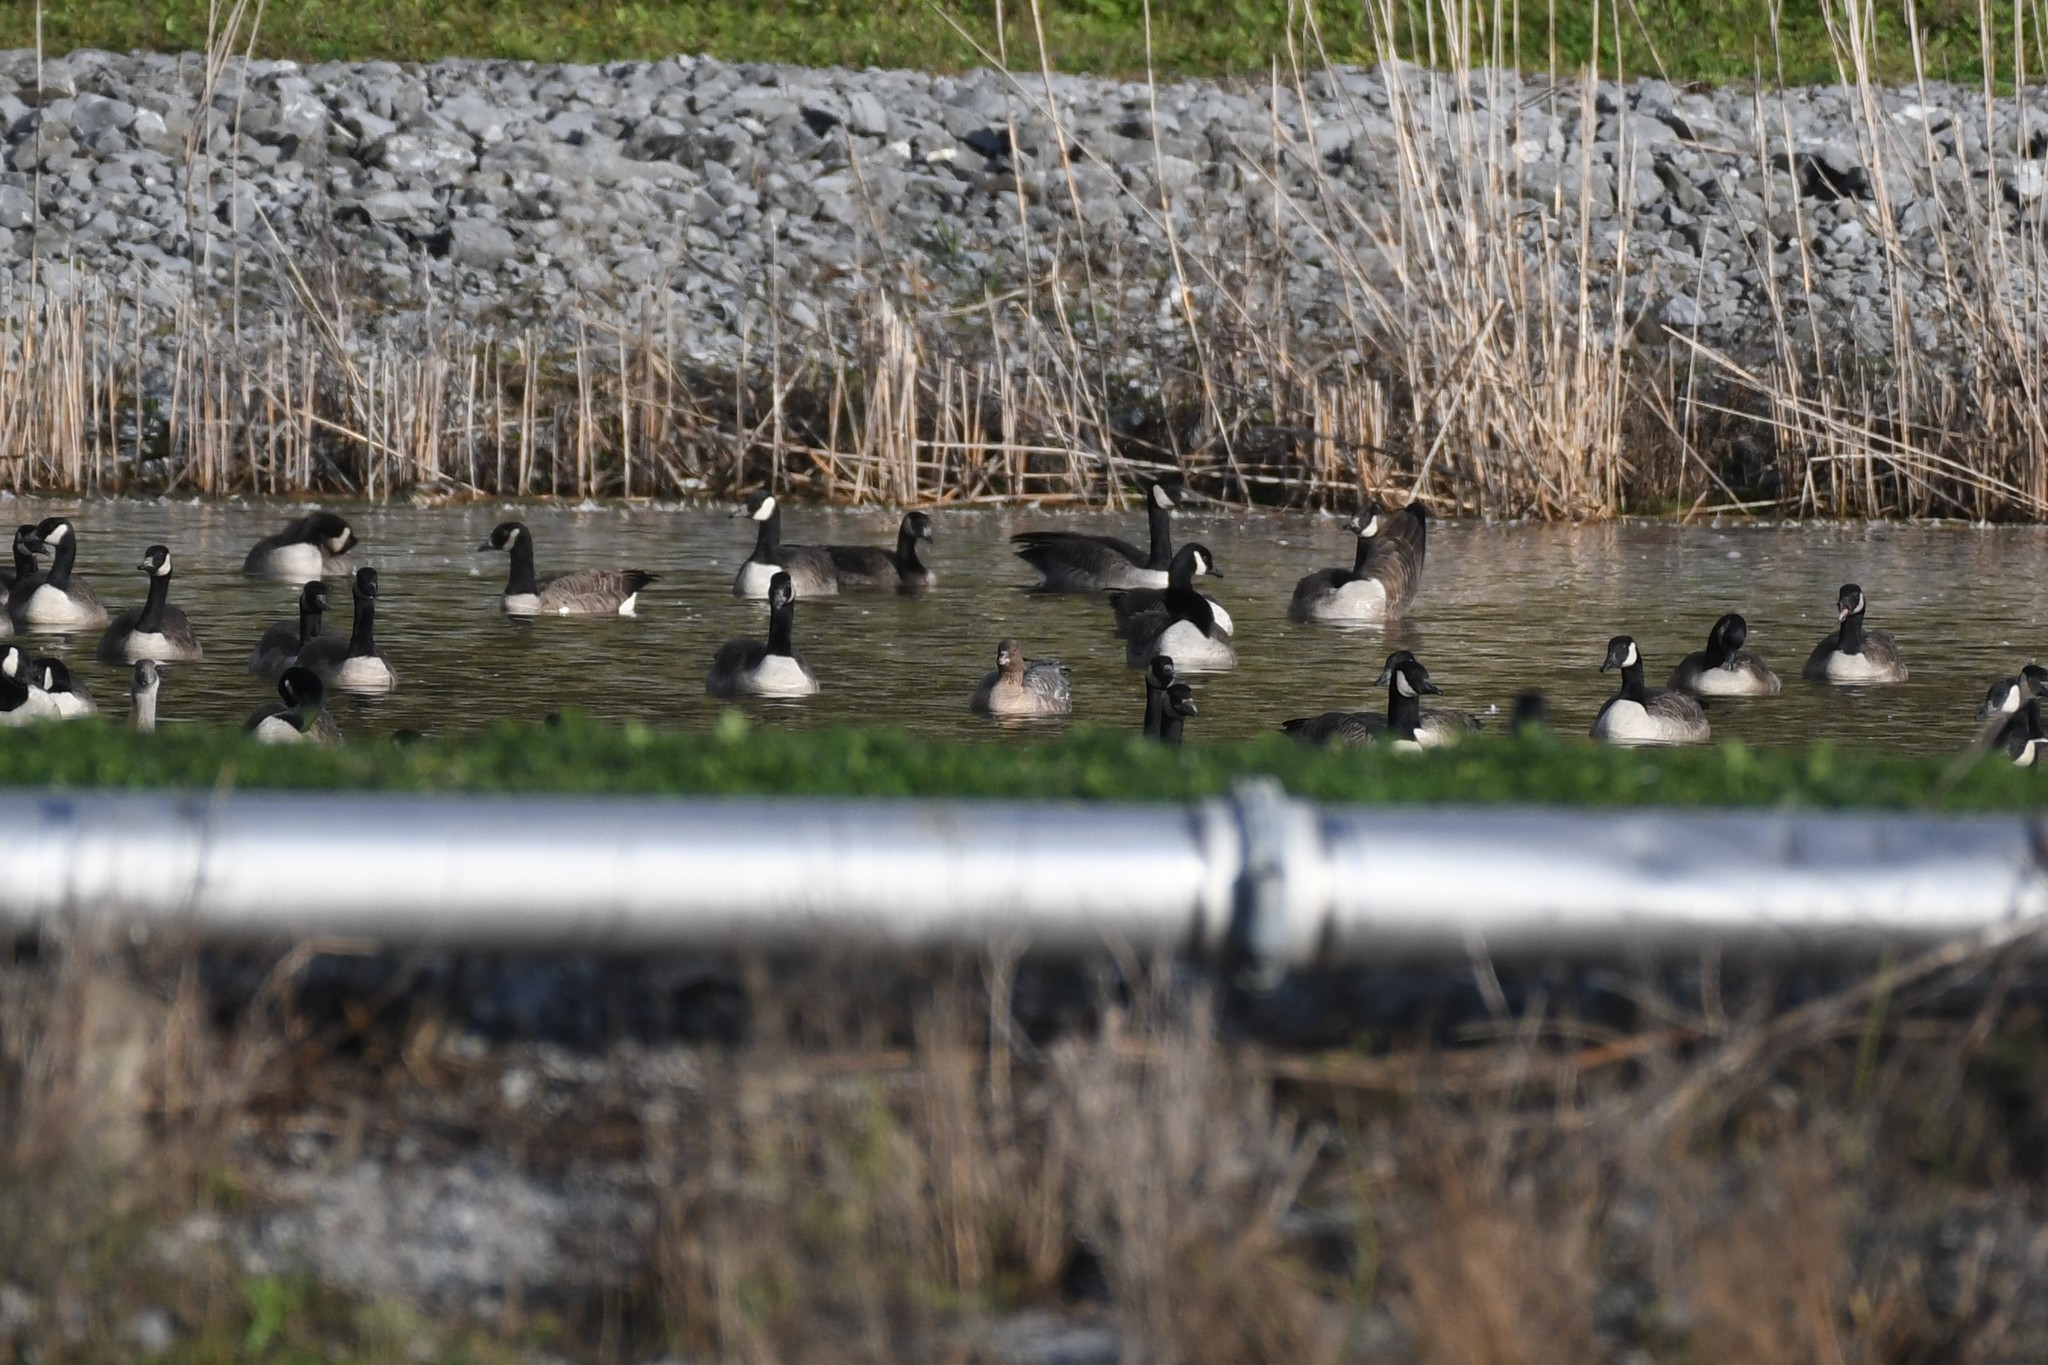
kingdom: Animalia
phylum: Chordata
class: Aves
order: Anseriformes
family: Anatidae
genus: Anser
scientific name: Anser brachyrhynchus
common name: Pink-footed goose
